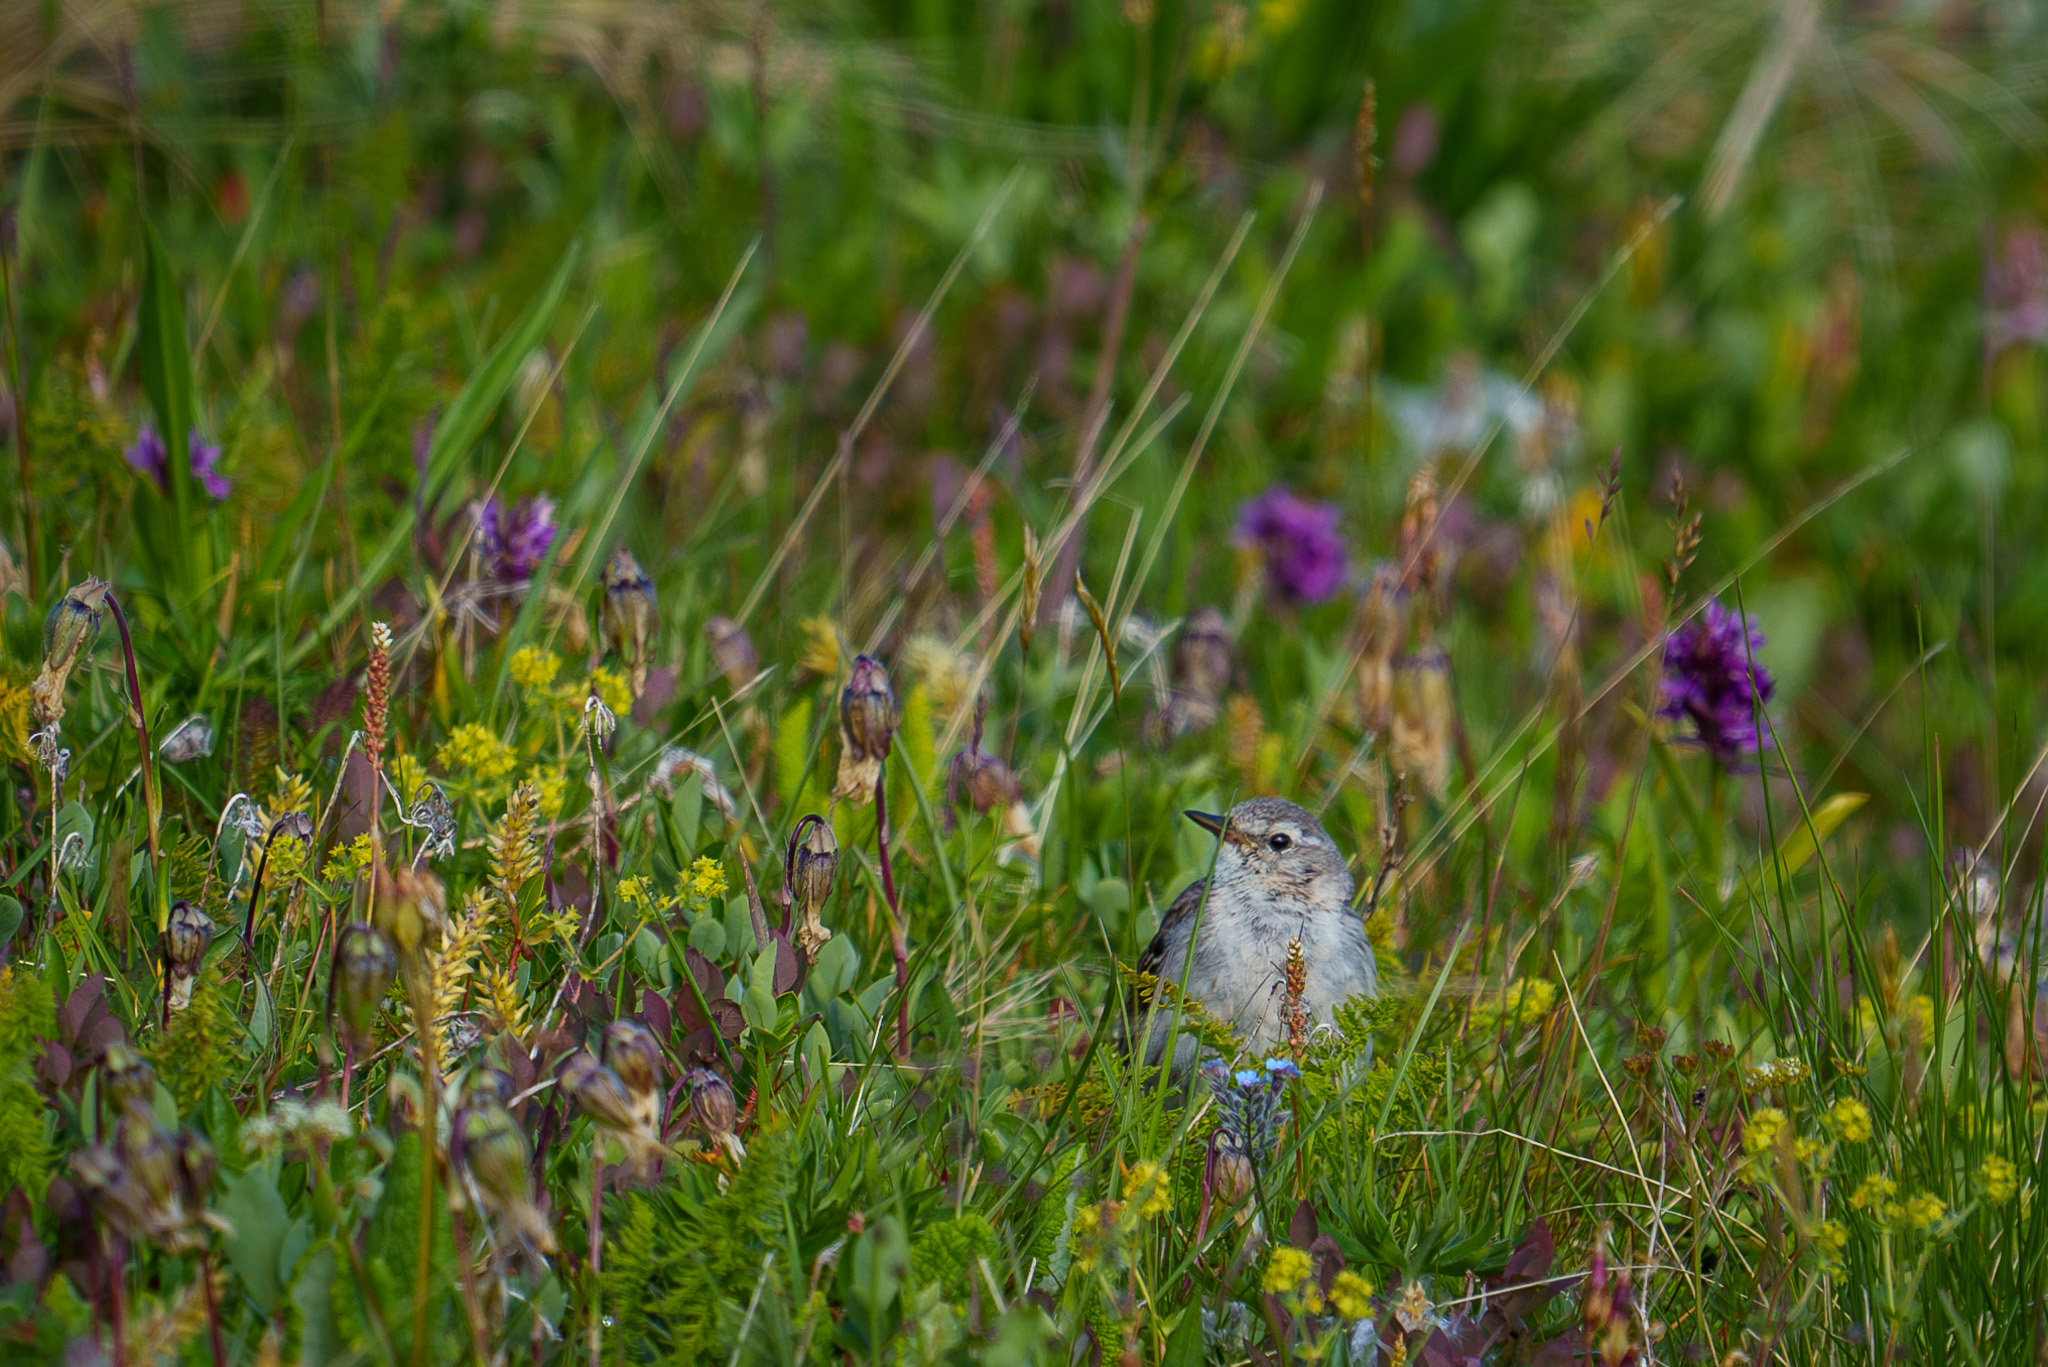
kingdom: Animalia
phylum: Chordata
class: Aves
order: Passeriformes
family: Motacillidae
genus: Anthus
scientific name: Anthus spinoletta
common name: Water pipit
